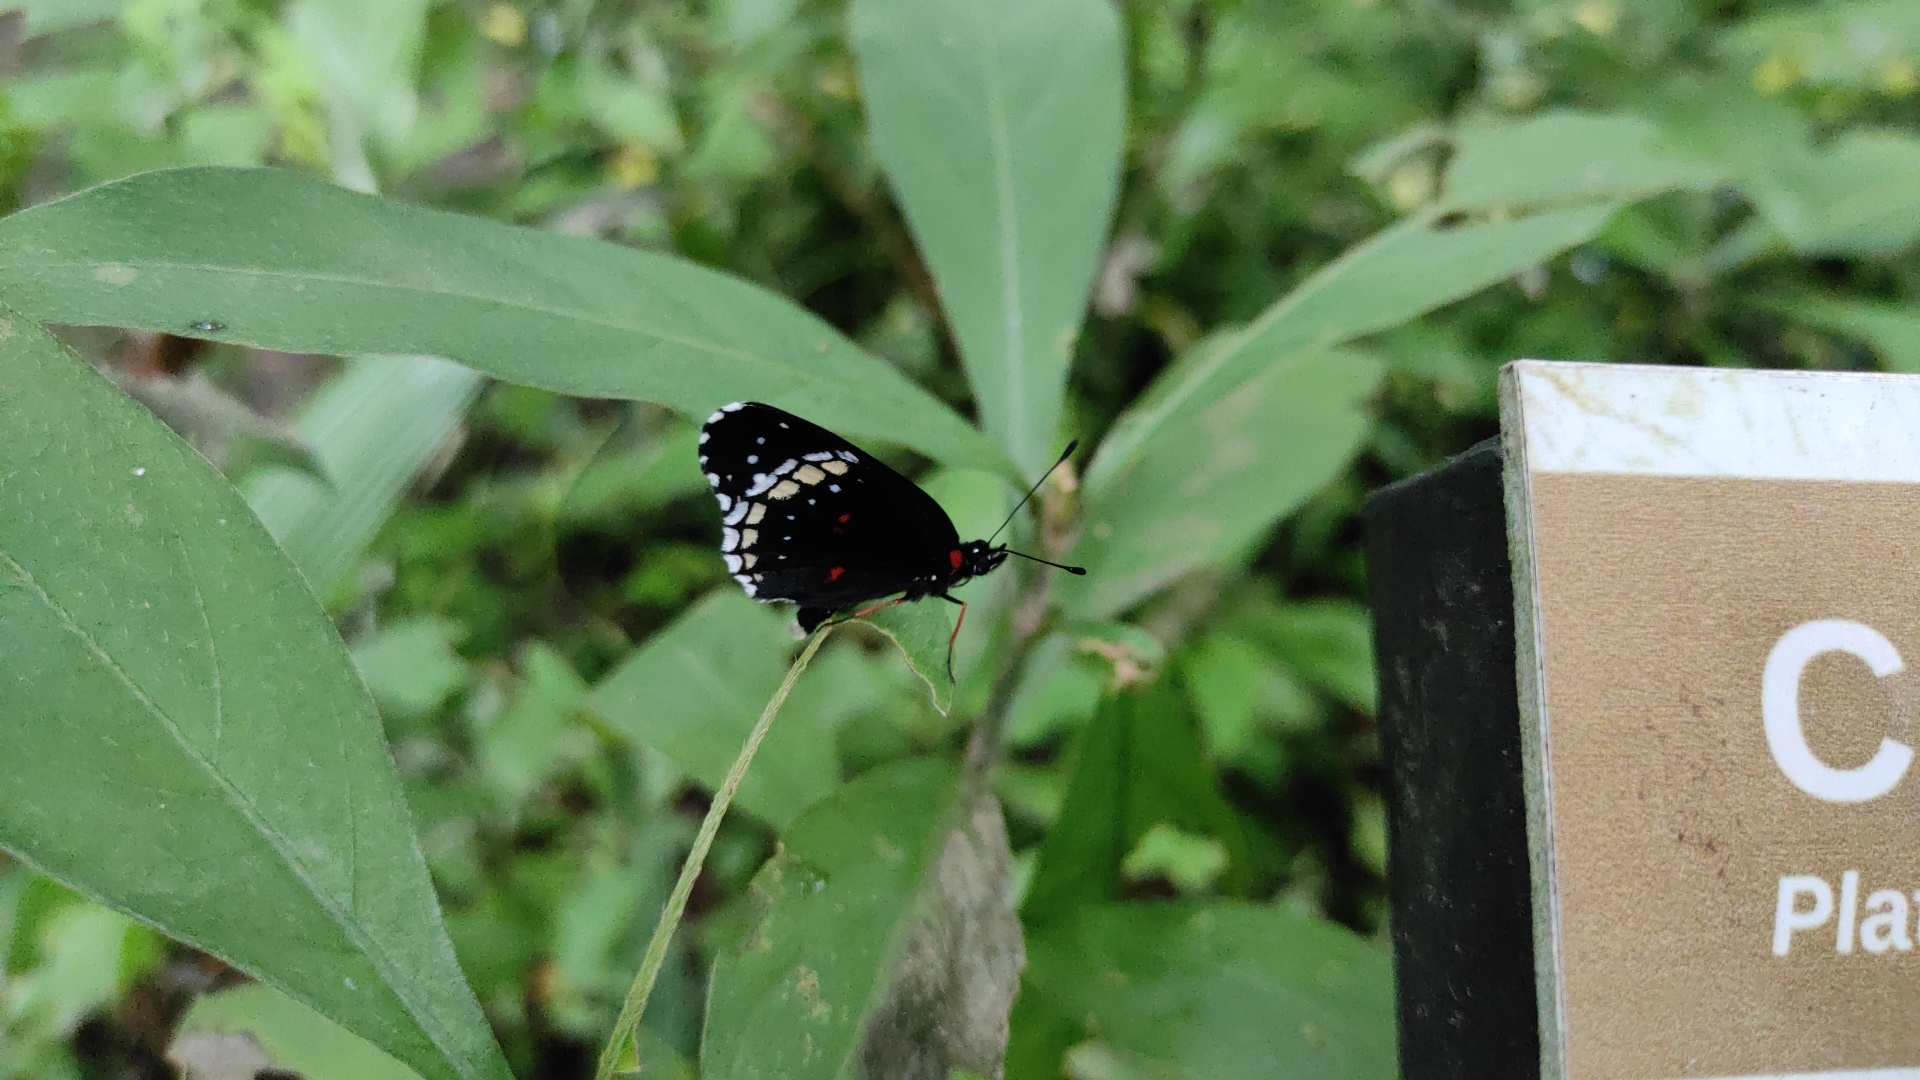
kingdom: Animalia
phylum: Arthropoda
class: Insecta
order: Lepidoptera
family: Nymphalidae
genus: Chlosyne
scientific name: Chlosyne hippodrome
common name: Simple patch
